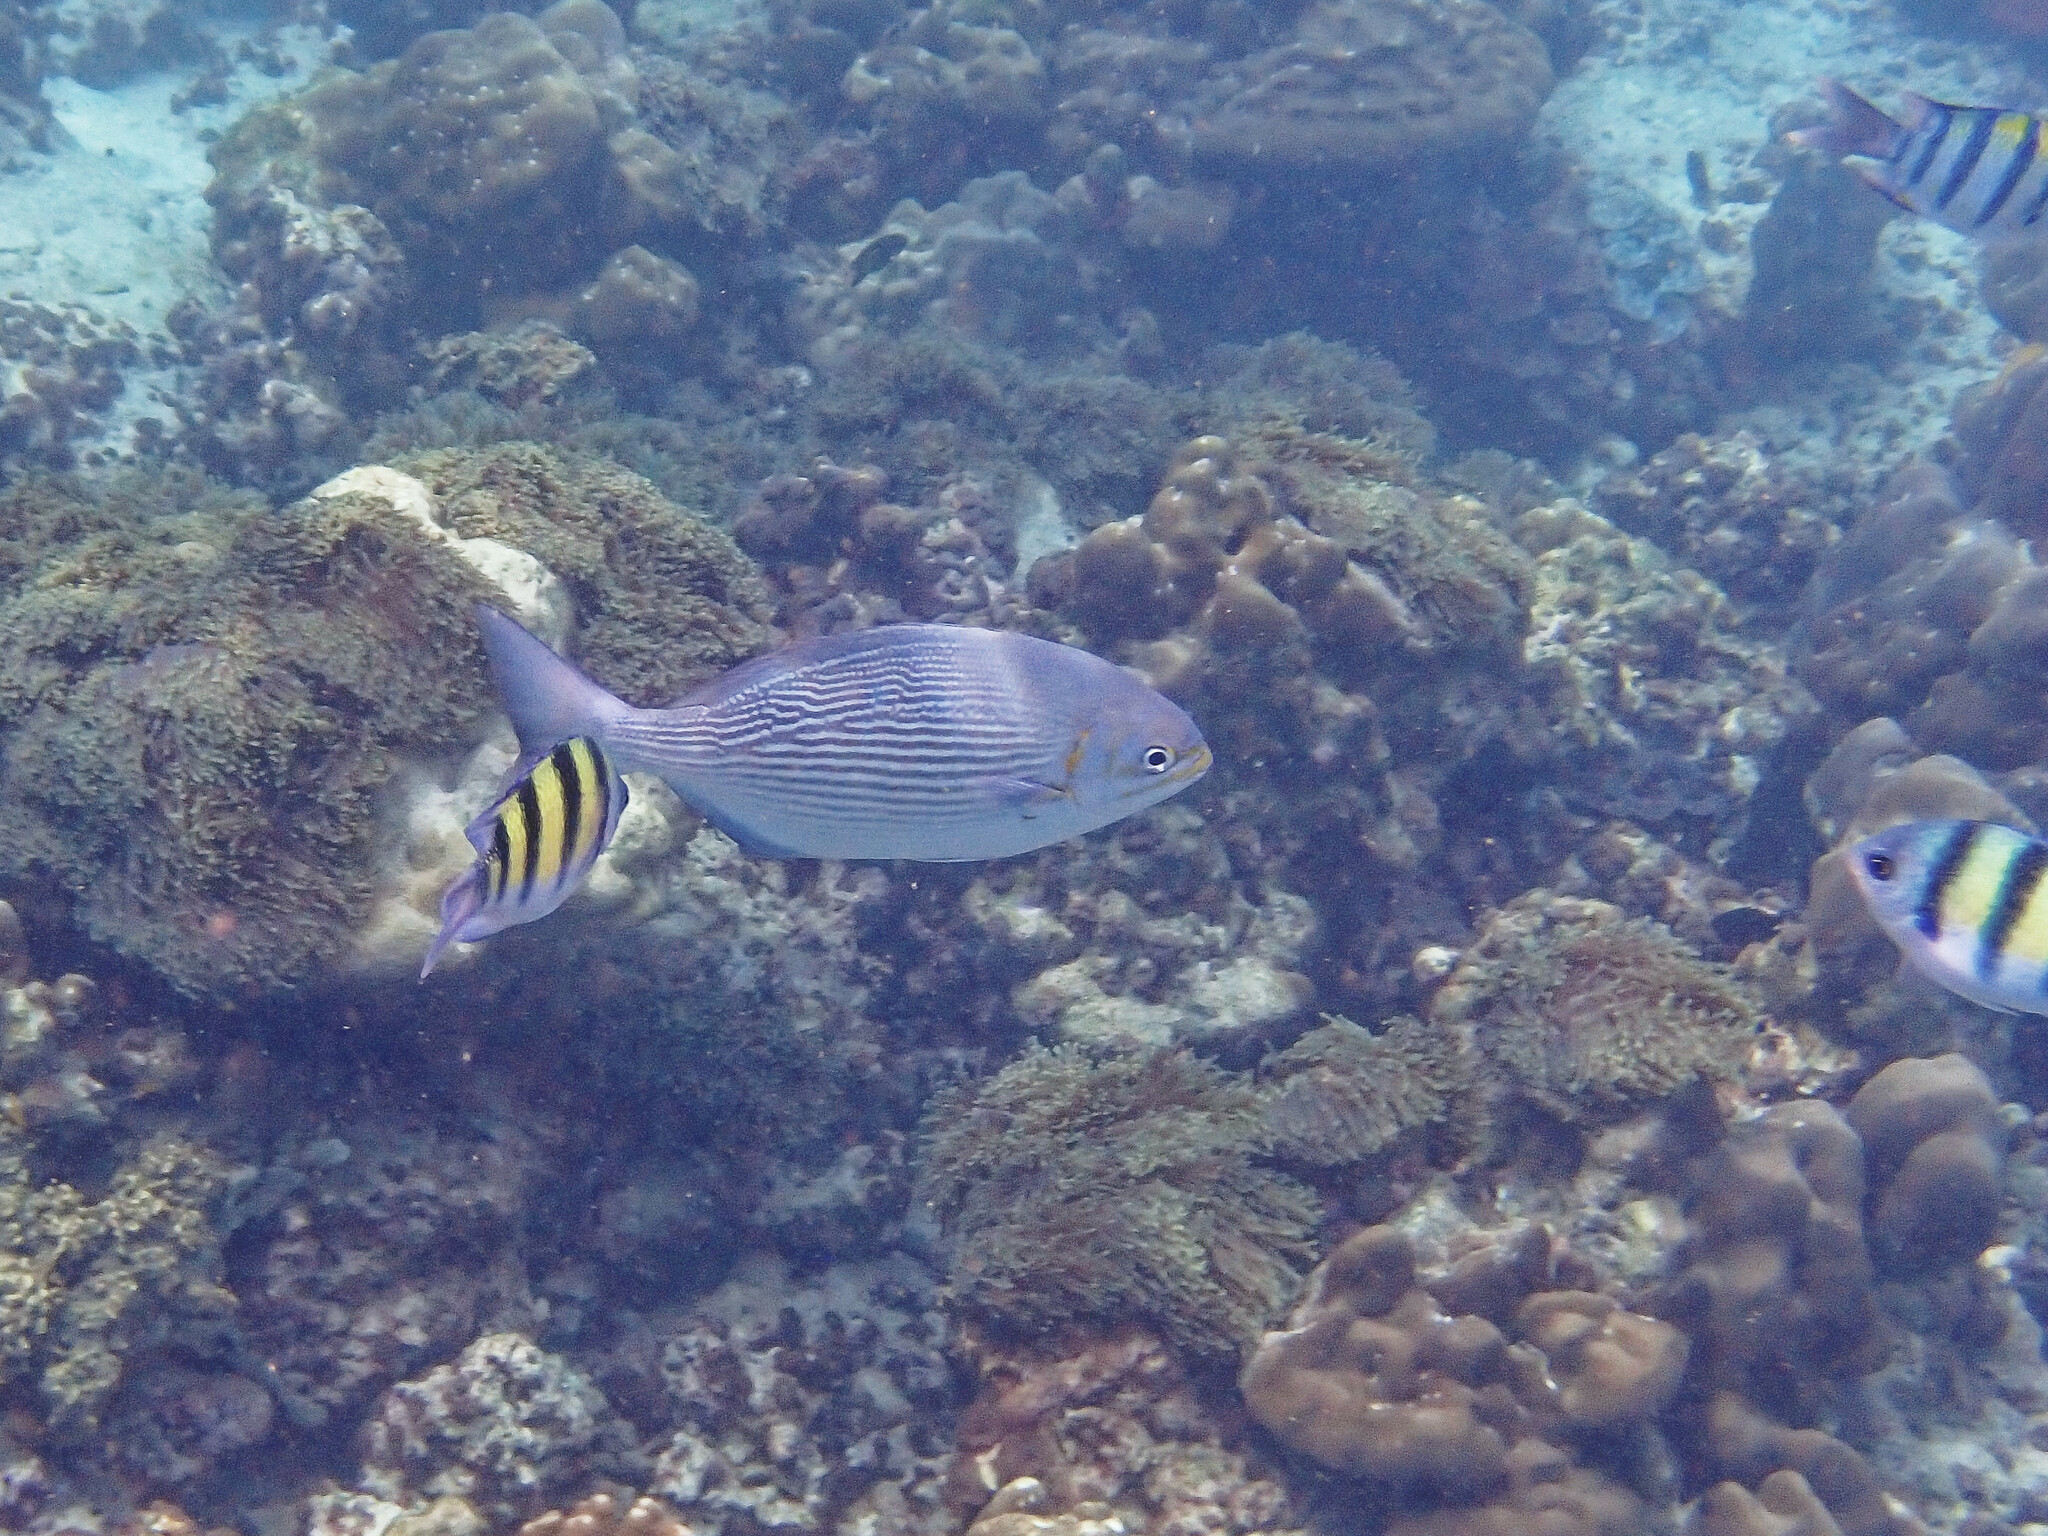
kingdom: Animalia
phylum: Chordata
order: Perciformes
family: Kyphosidae
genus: Kyphosus
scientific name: Kyphosus vaigiensis
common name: Brassy chub
